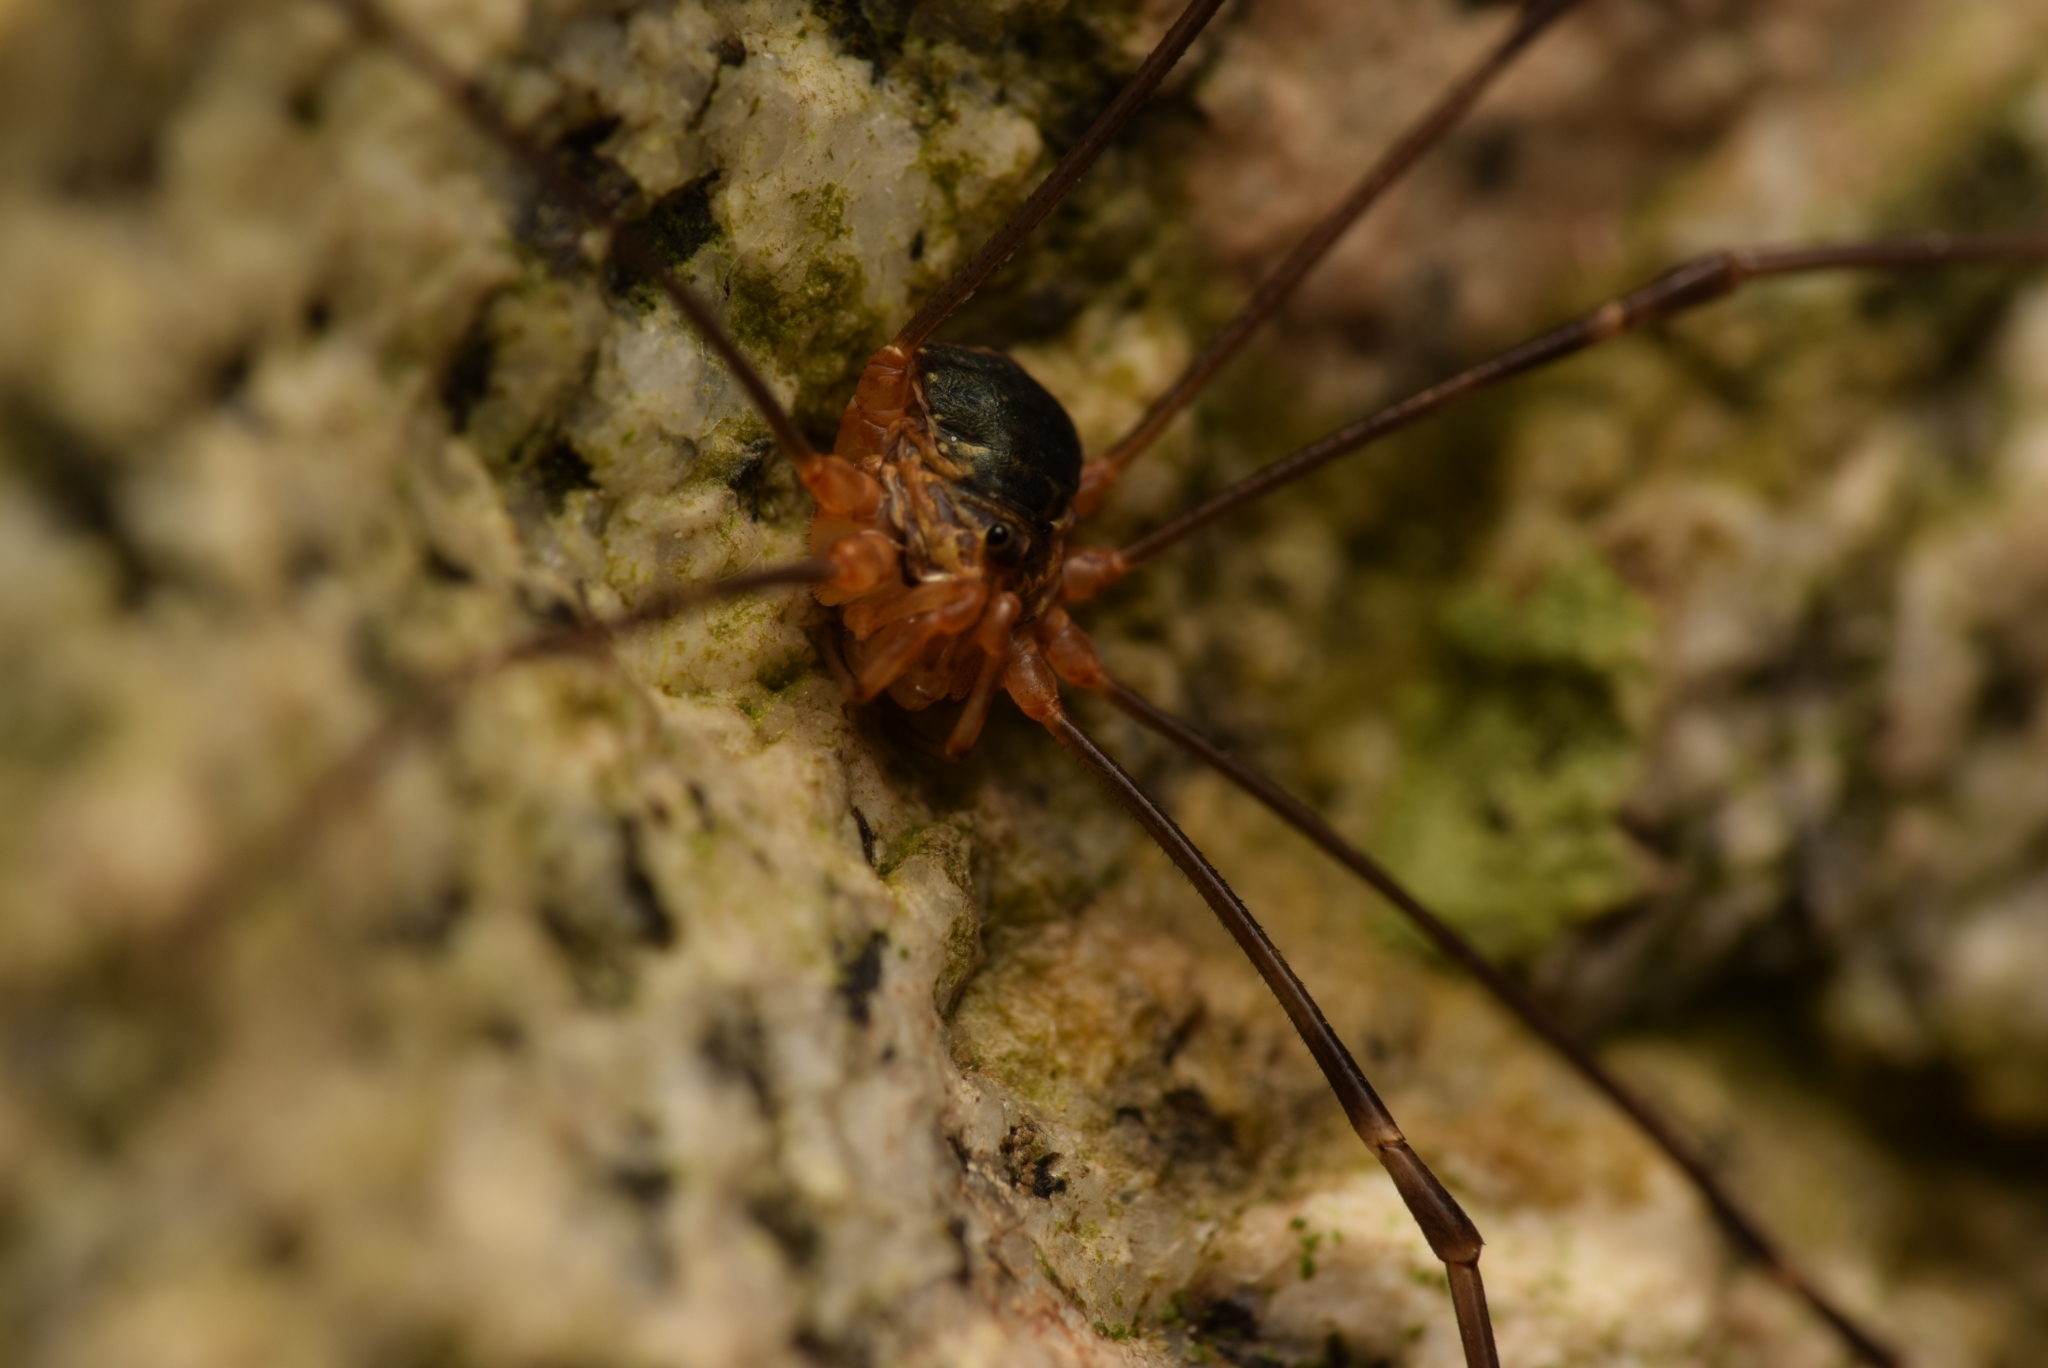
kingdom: Animalia
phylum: Arthropoda
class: Arachnida
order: Opiliones
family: Phalangiidae
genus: Dicranopalpus
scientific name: Dicranopalpus catariegensis
